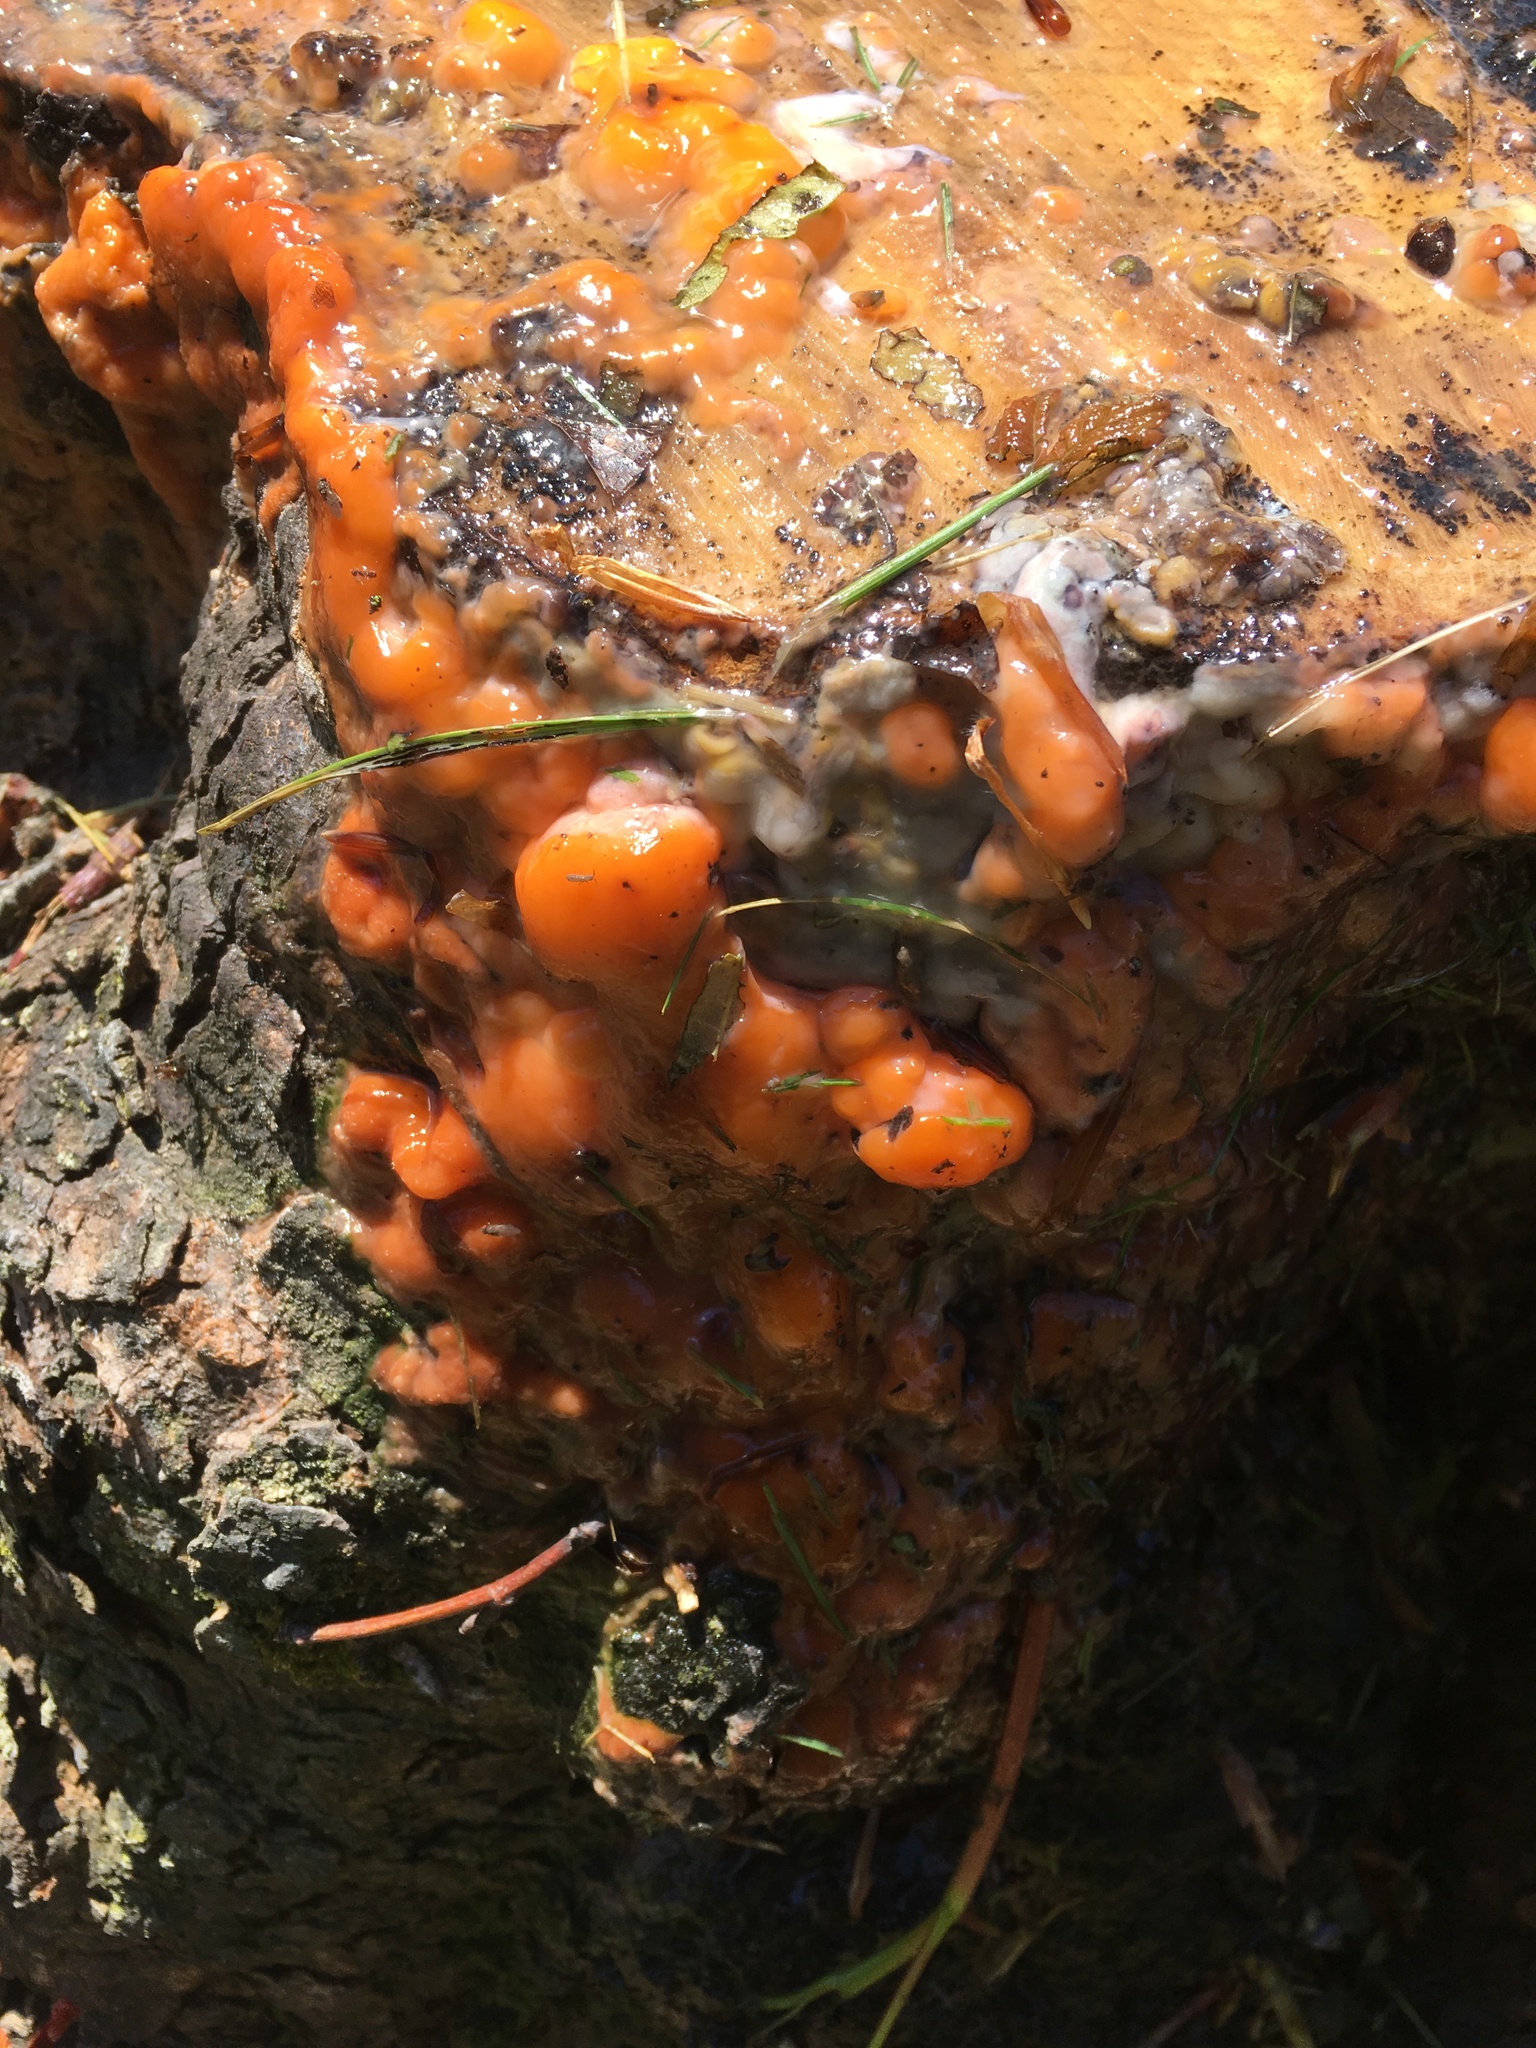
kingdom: Fungi
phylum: Ascomycota
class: Sordariomycetes
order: Hypocreales
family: Nectriaceae
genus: Fusicolla
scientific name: Fusicolla merismoides
